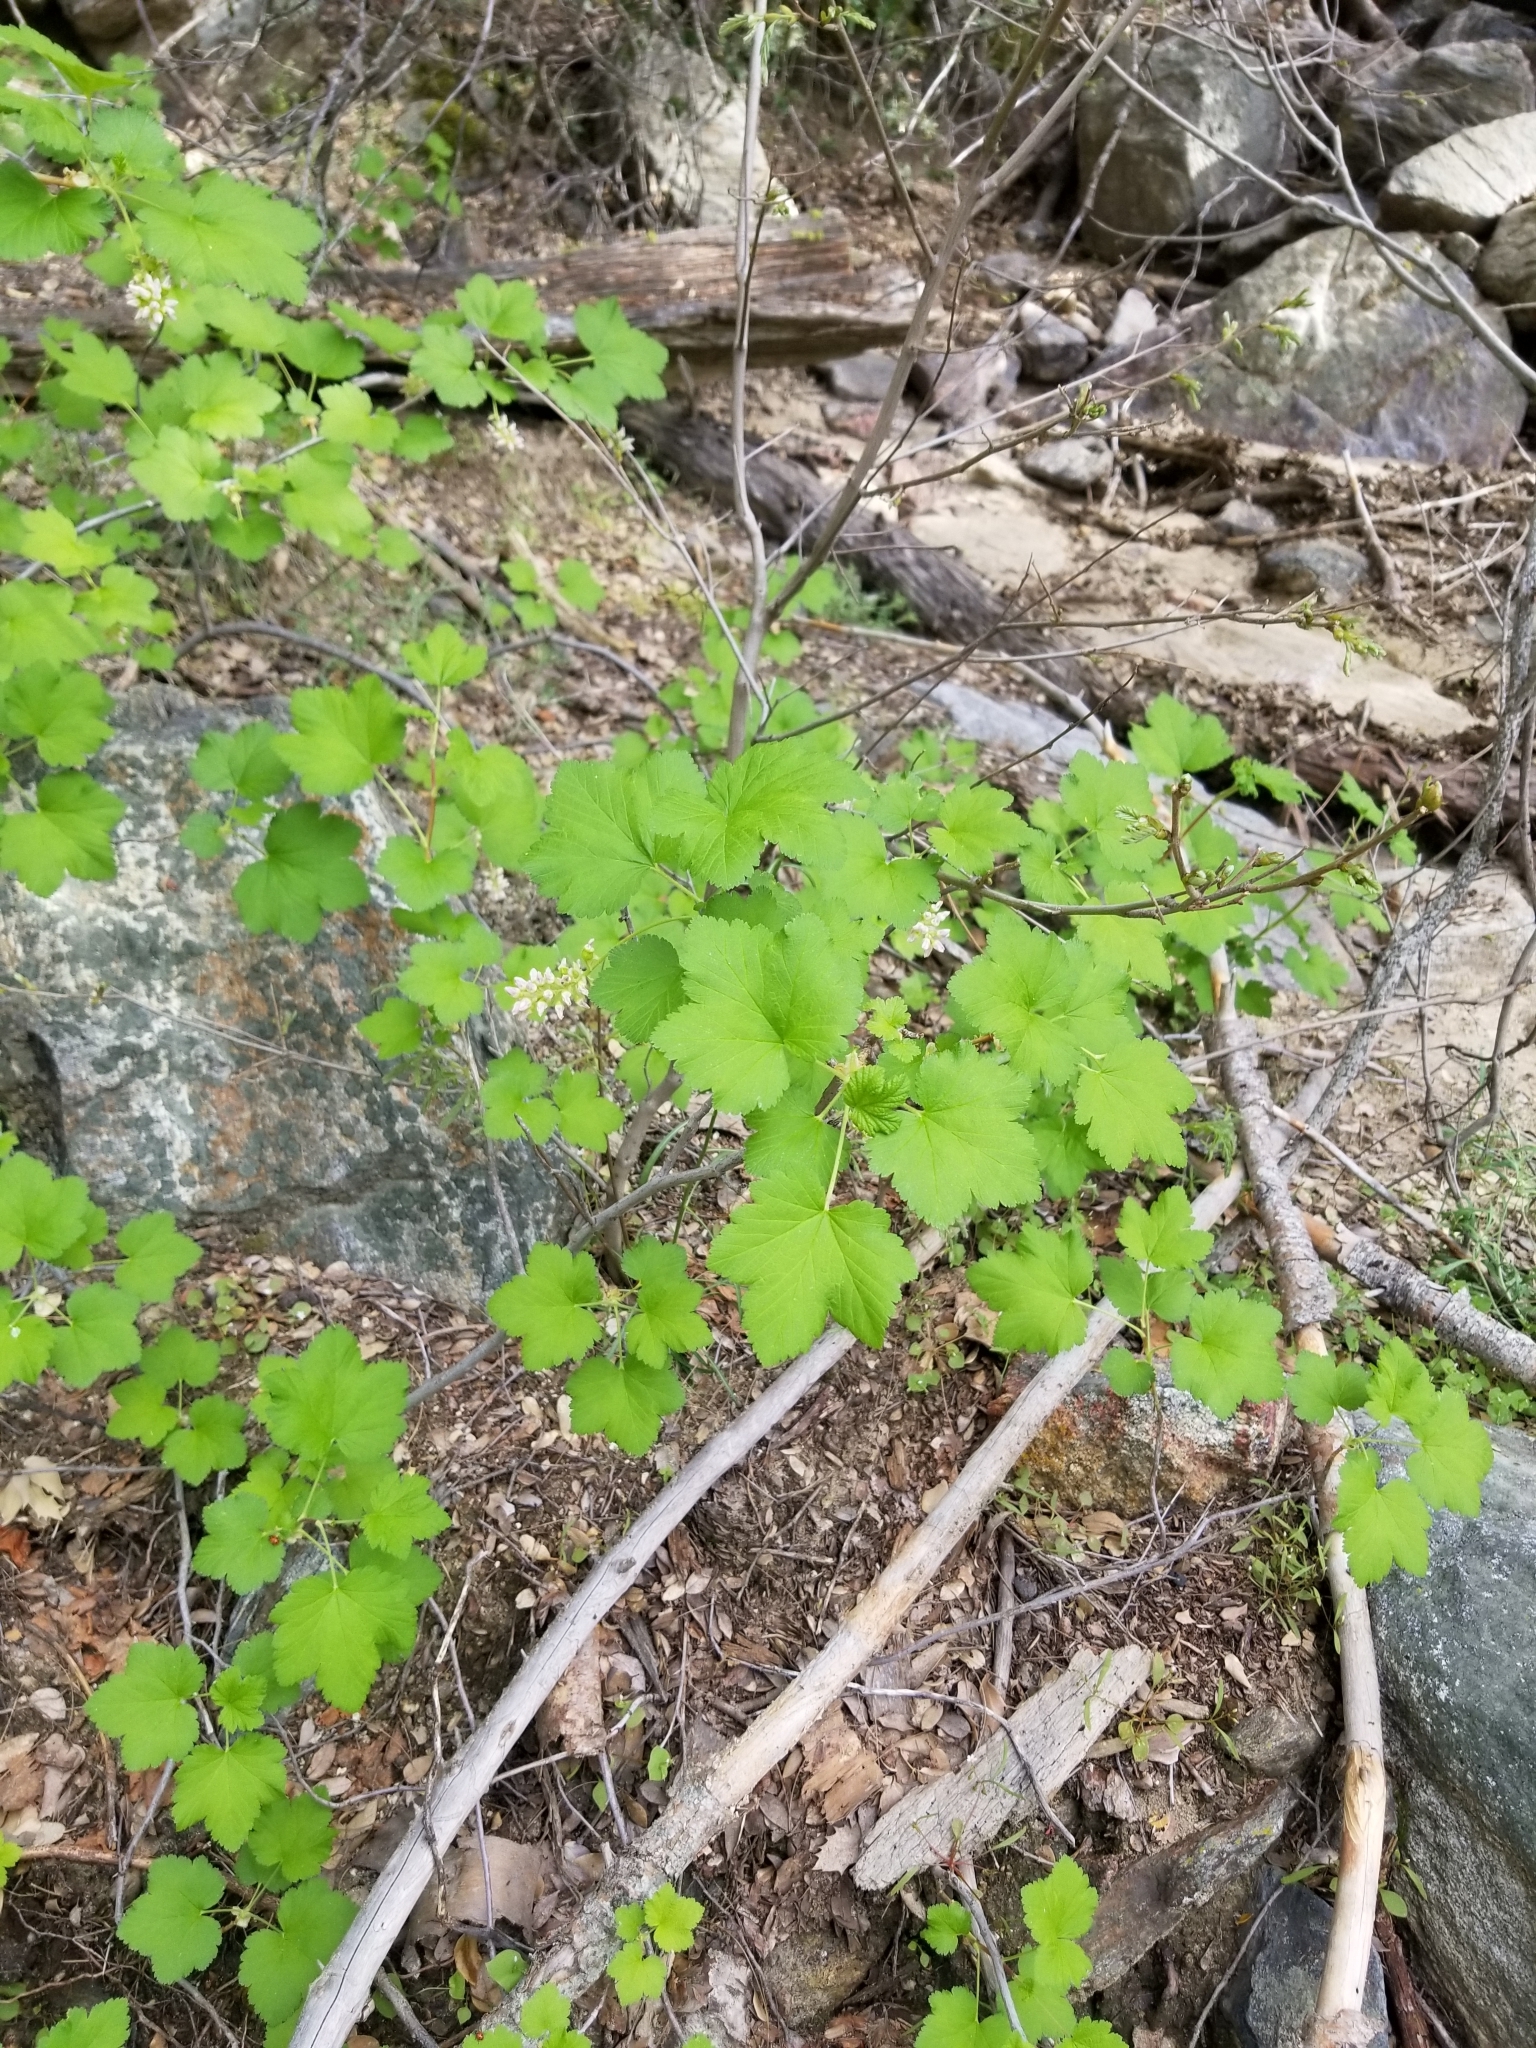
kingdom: Plantae
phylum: Tracheophyta
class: Magnoliopsida
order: Saxifragales
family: Grossulariaceae
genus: Ribes
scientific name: Ribes nevadense
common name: Mountain pink currant
